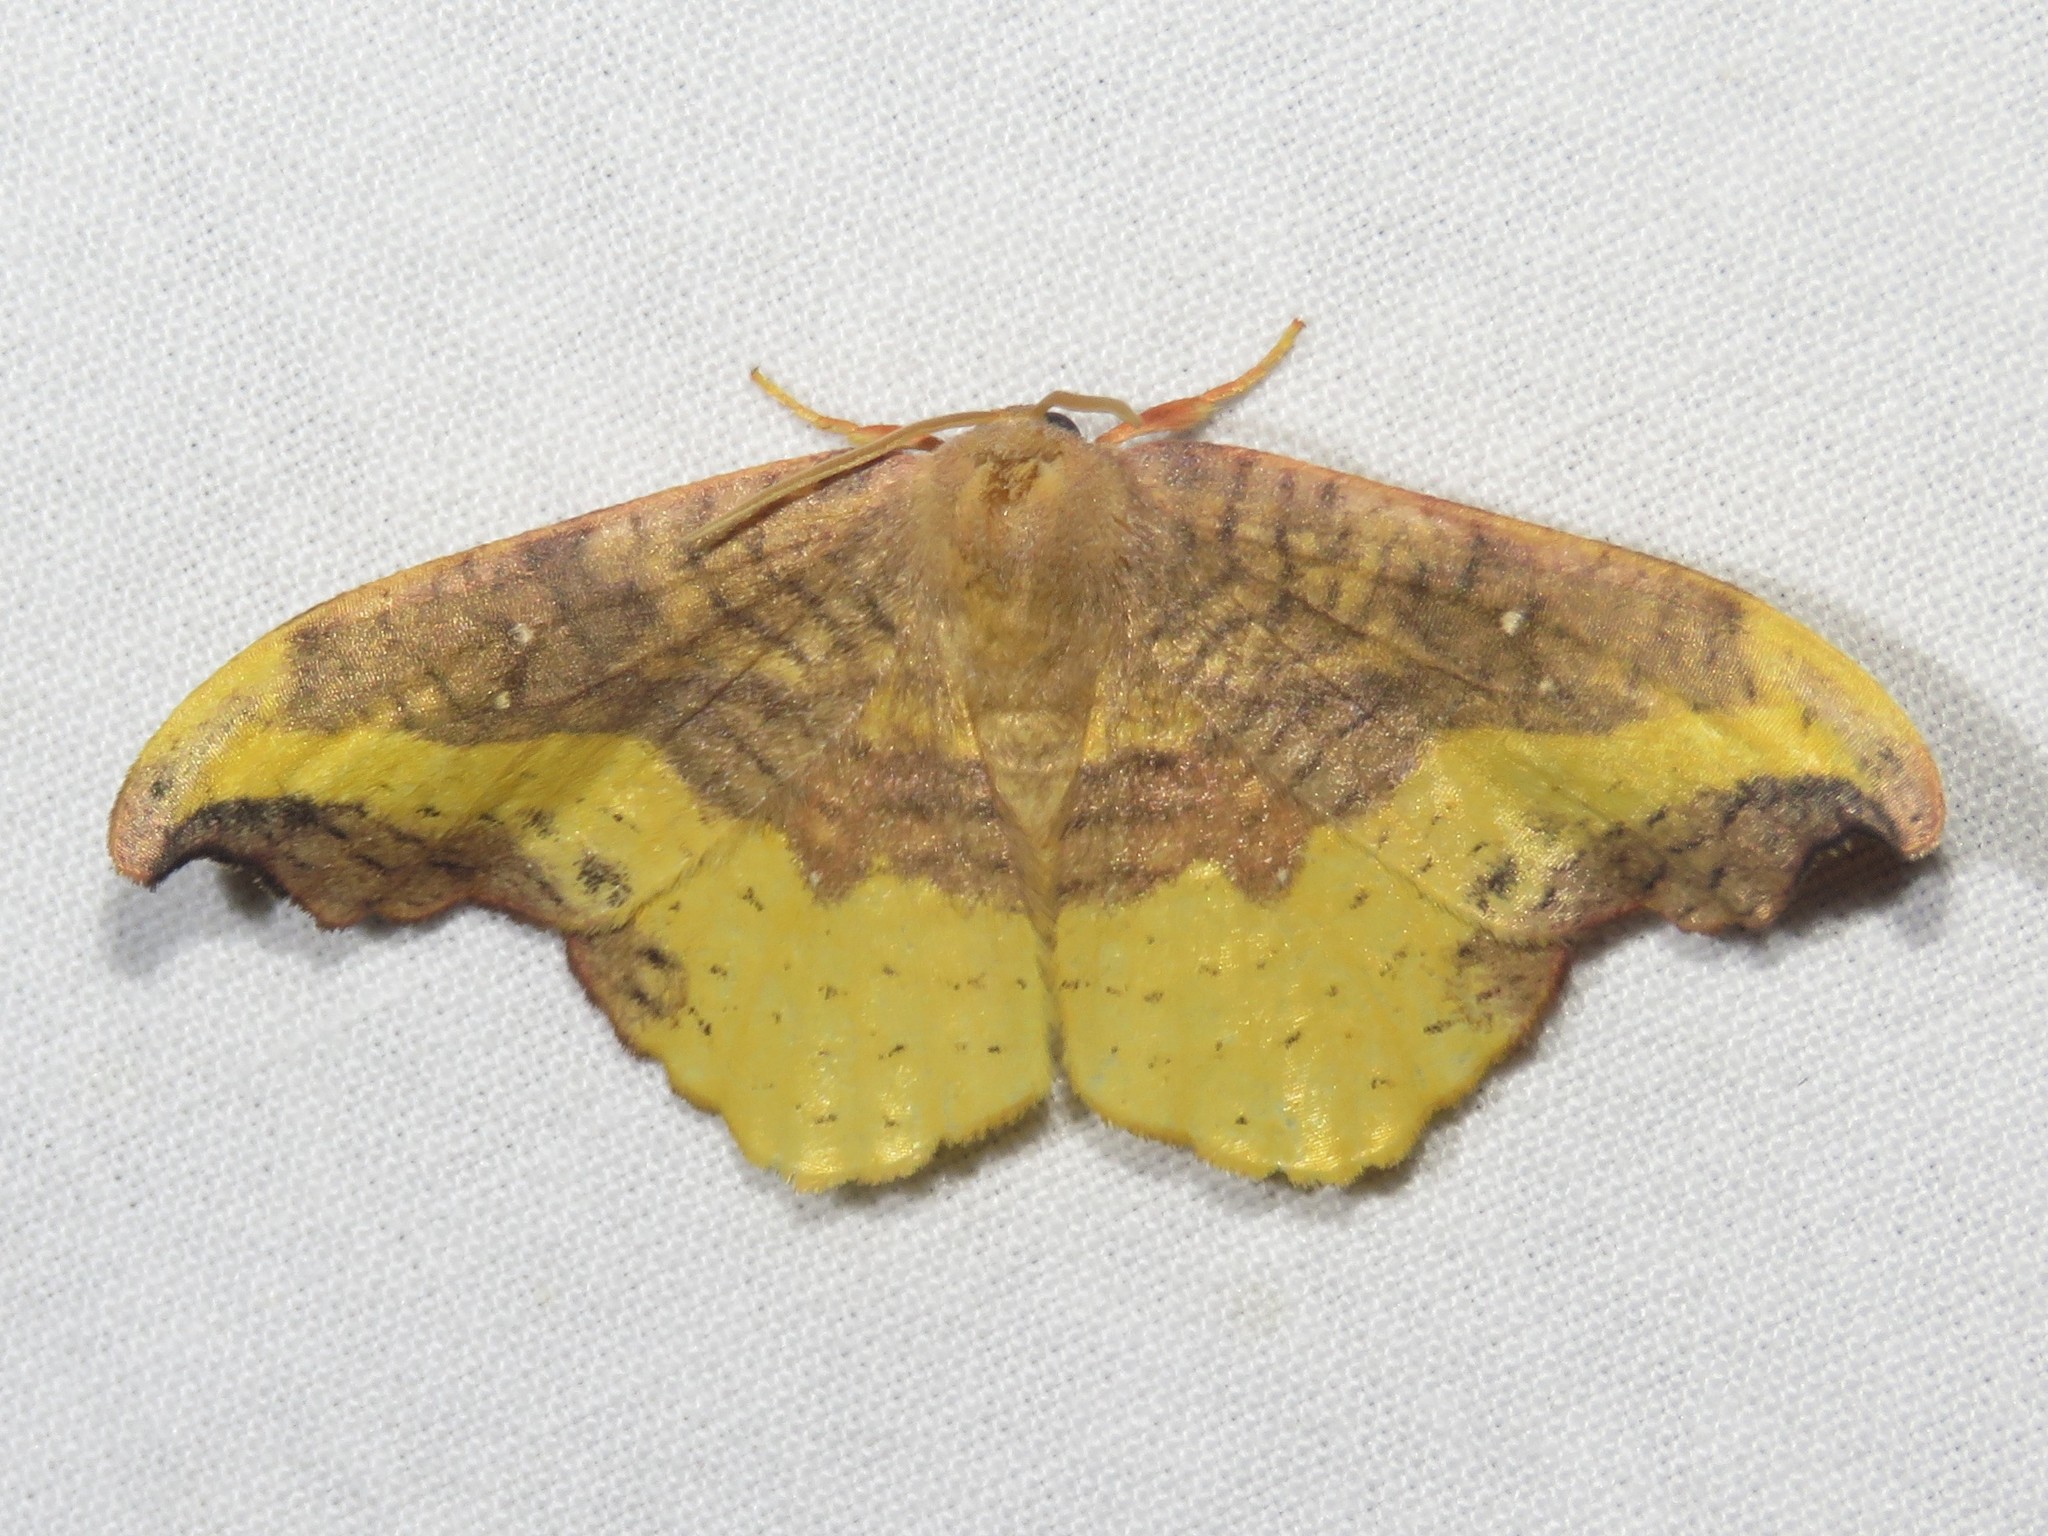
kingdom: Animalia
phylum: Arthropoda
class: Insecta
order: Lepidoptera
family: Drepanidae
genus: Oreta
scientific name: Oreta rosea
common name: Rose hooktip
